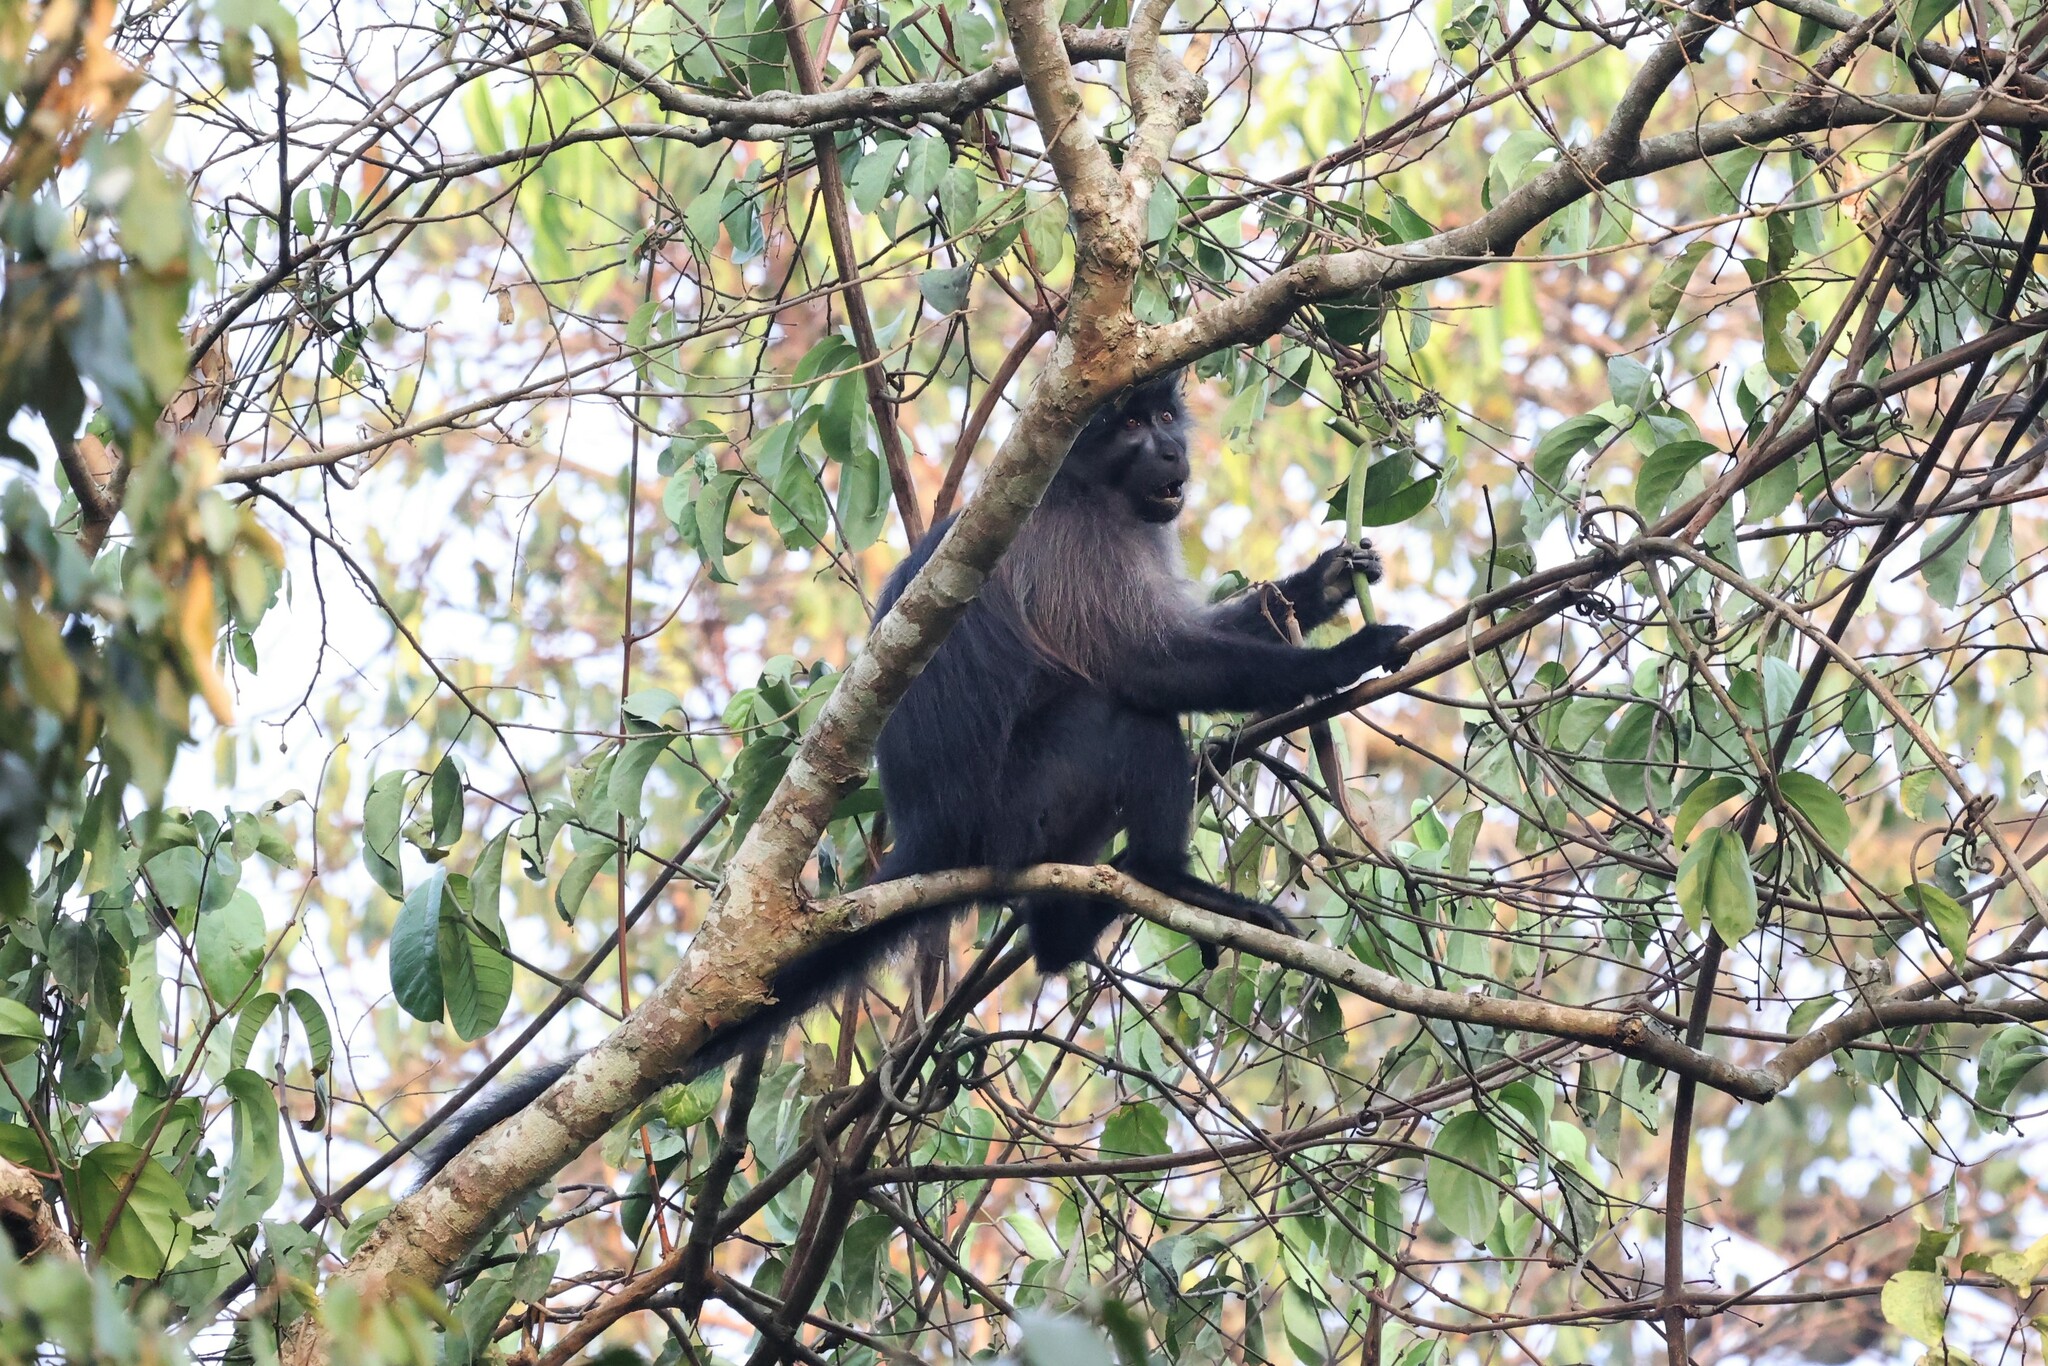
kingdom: Animalia
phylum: Chordata
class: Mammalia
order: Primates
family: Cercopithecidae
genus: Lophocebus
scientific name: Lophocebus albigena
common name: Gray-cheeked mangabey
